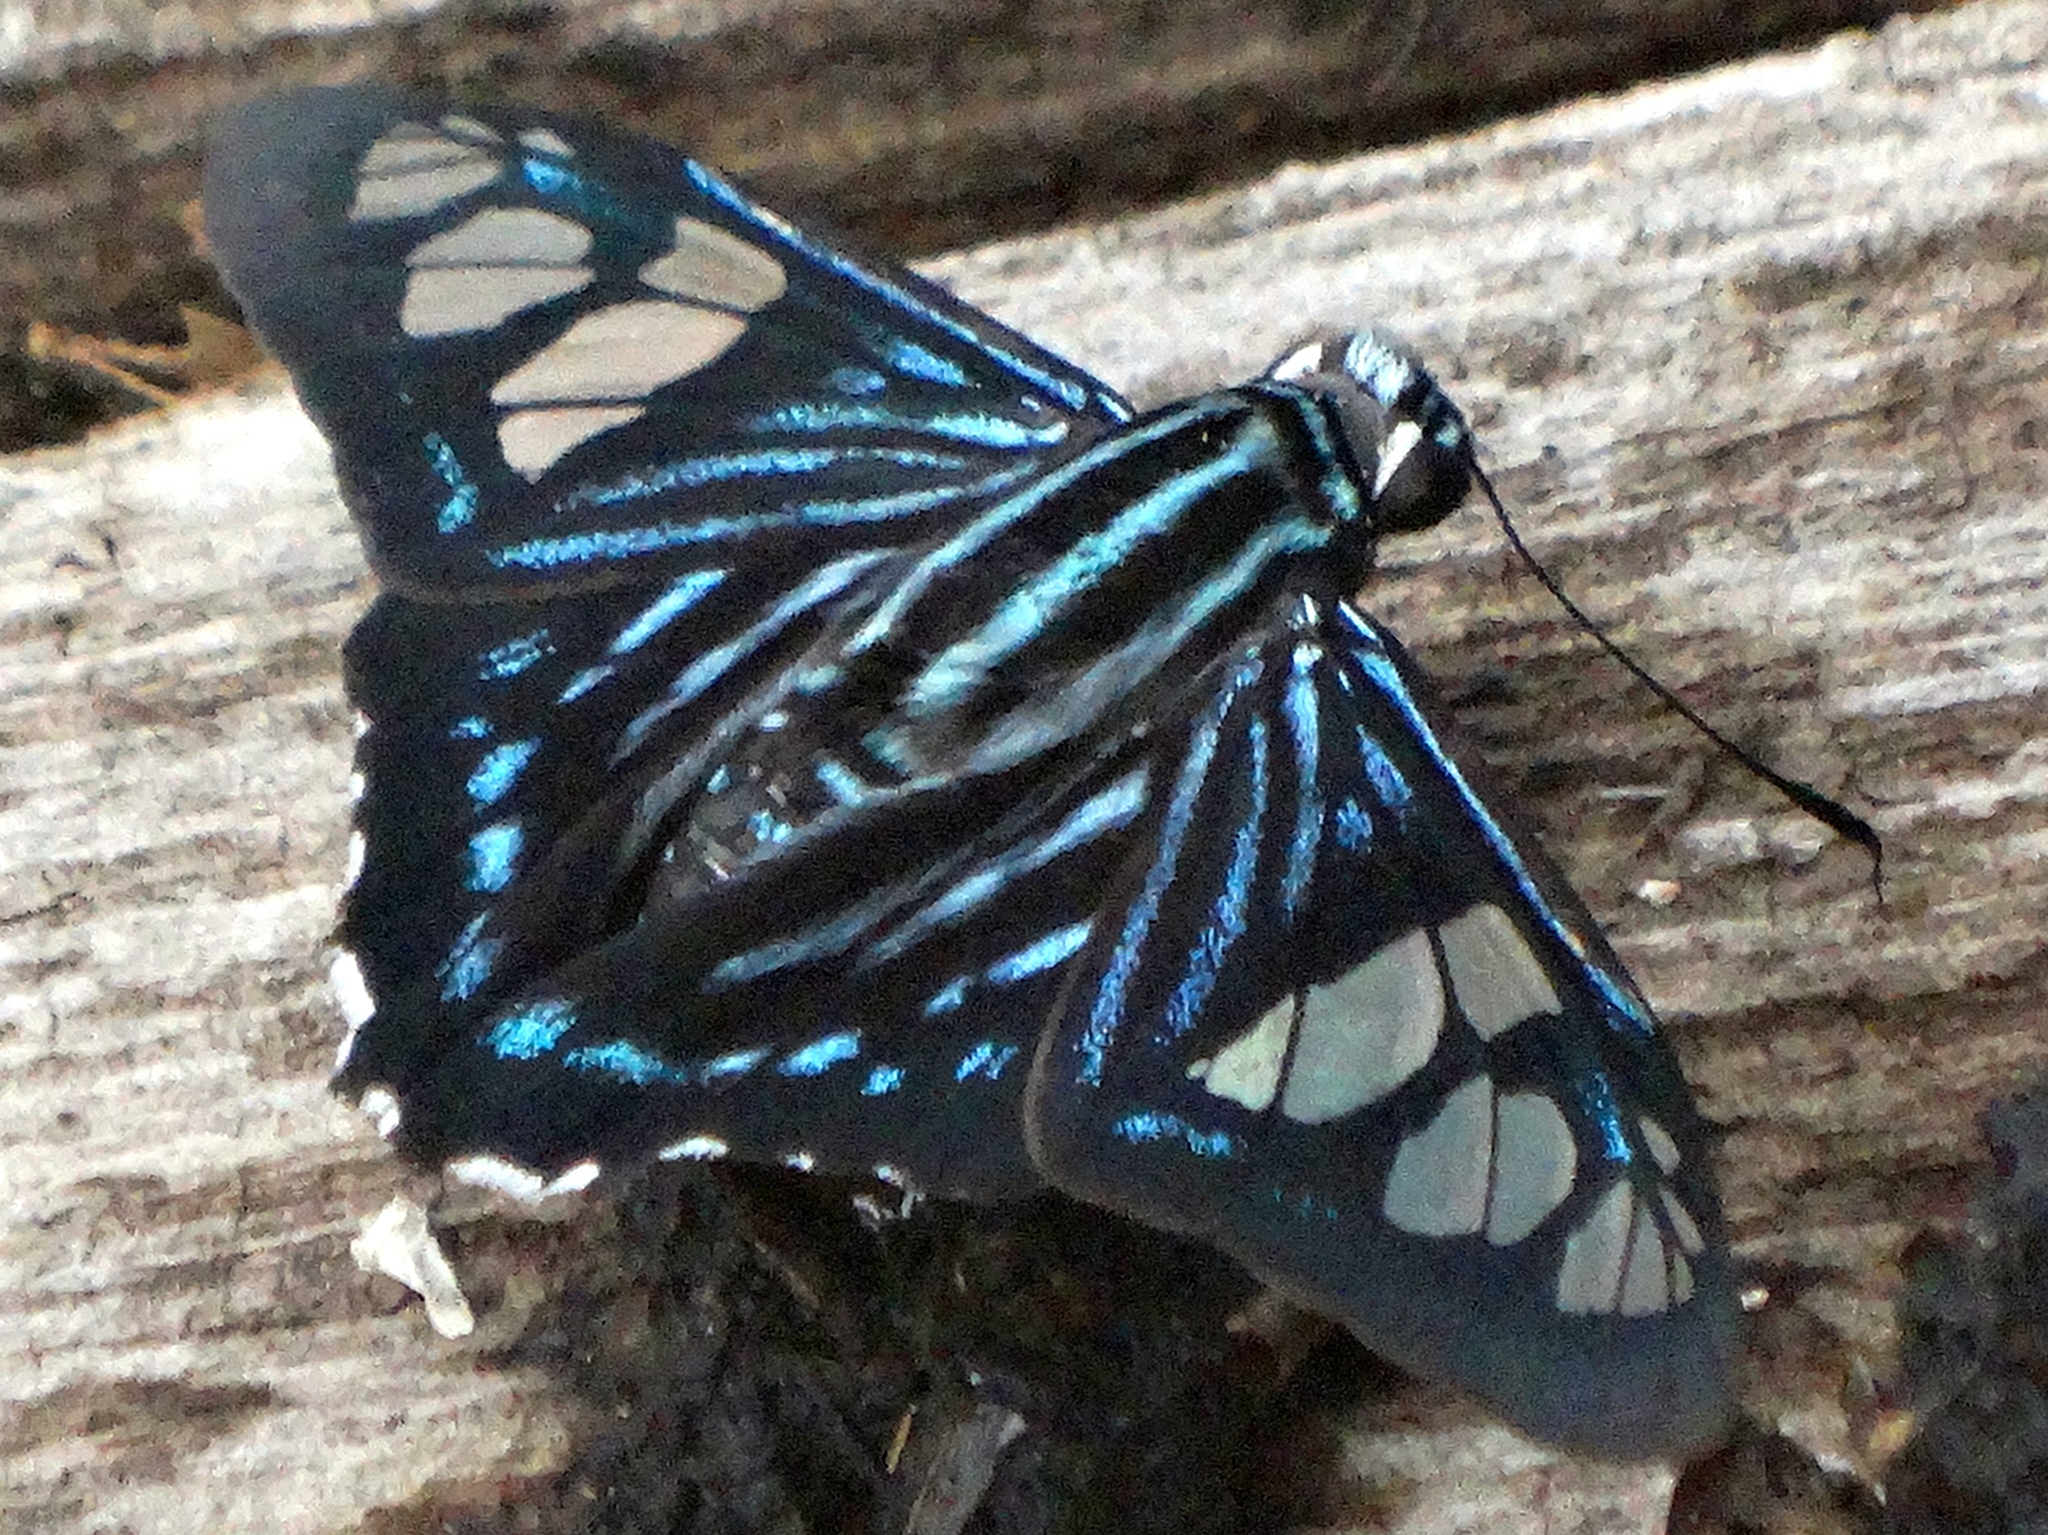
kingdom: Animalia
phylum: Arthropoda
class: Insecta
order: Lepidoptera
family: Hesperiidae
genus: Phocides
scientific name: Phocides pigmalion
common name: Mangrove skipper
